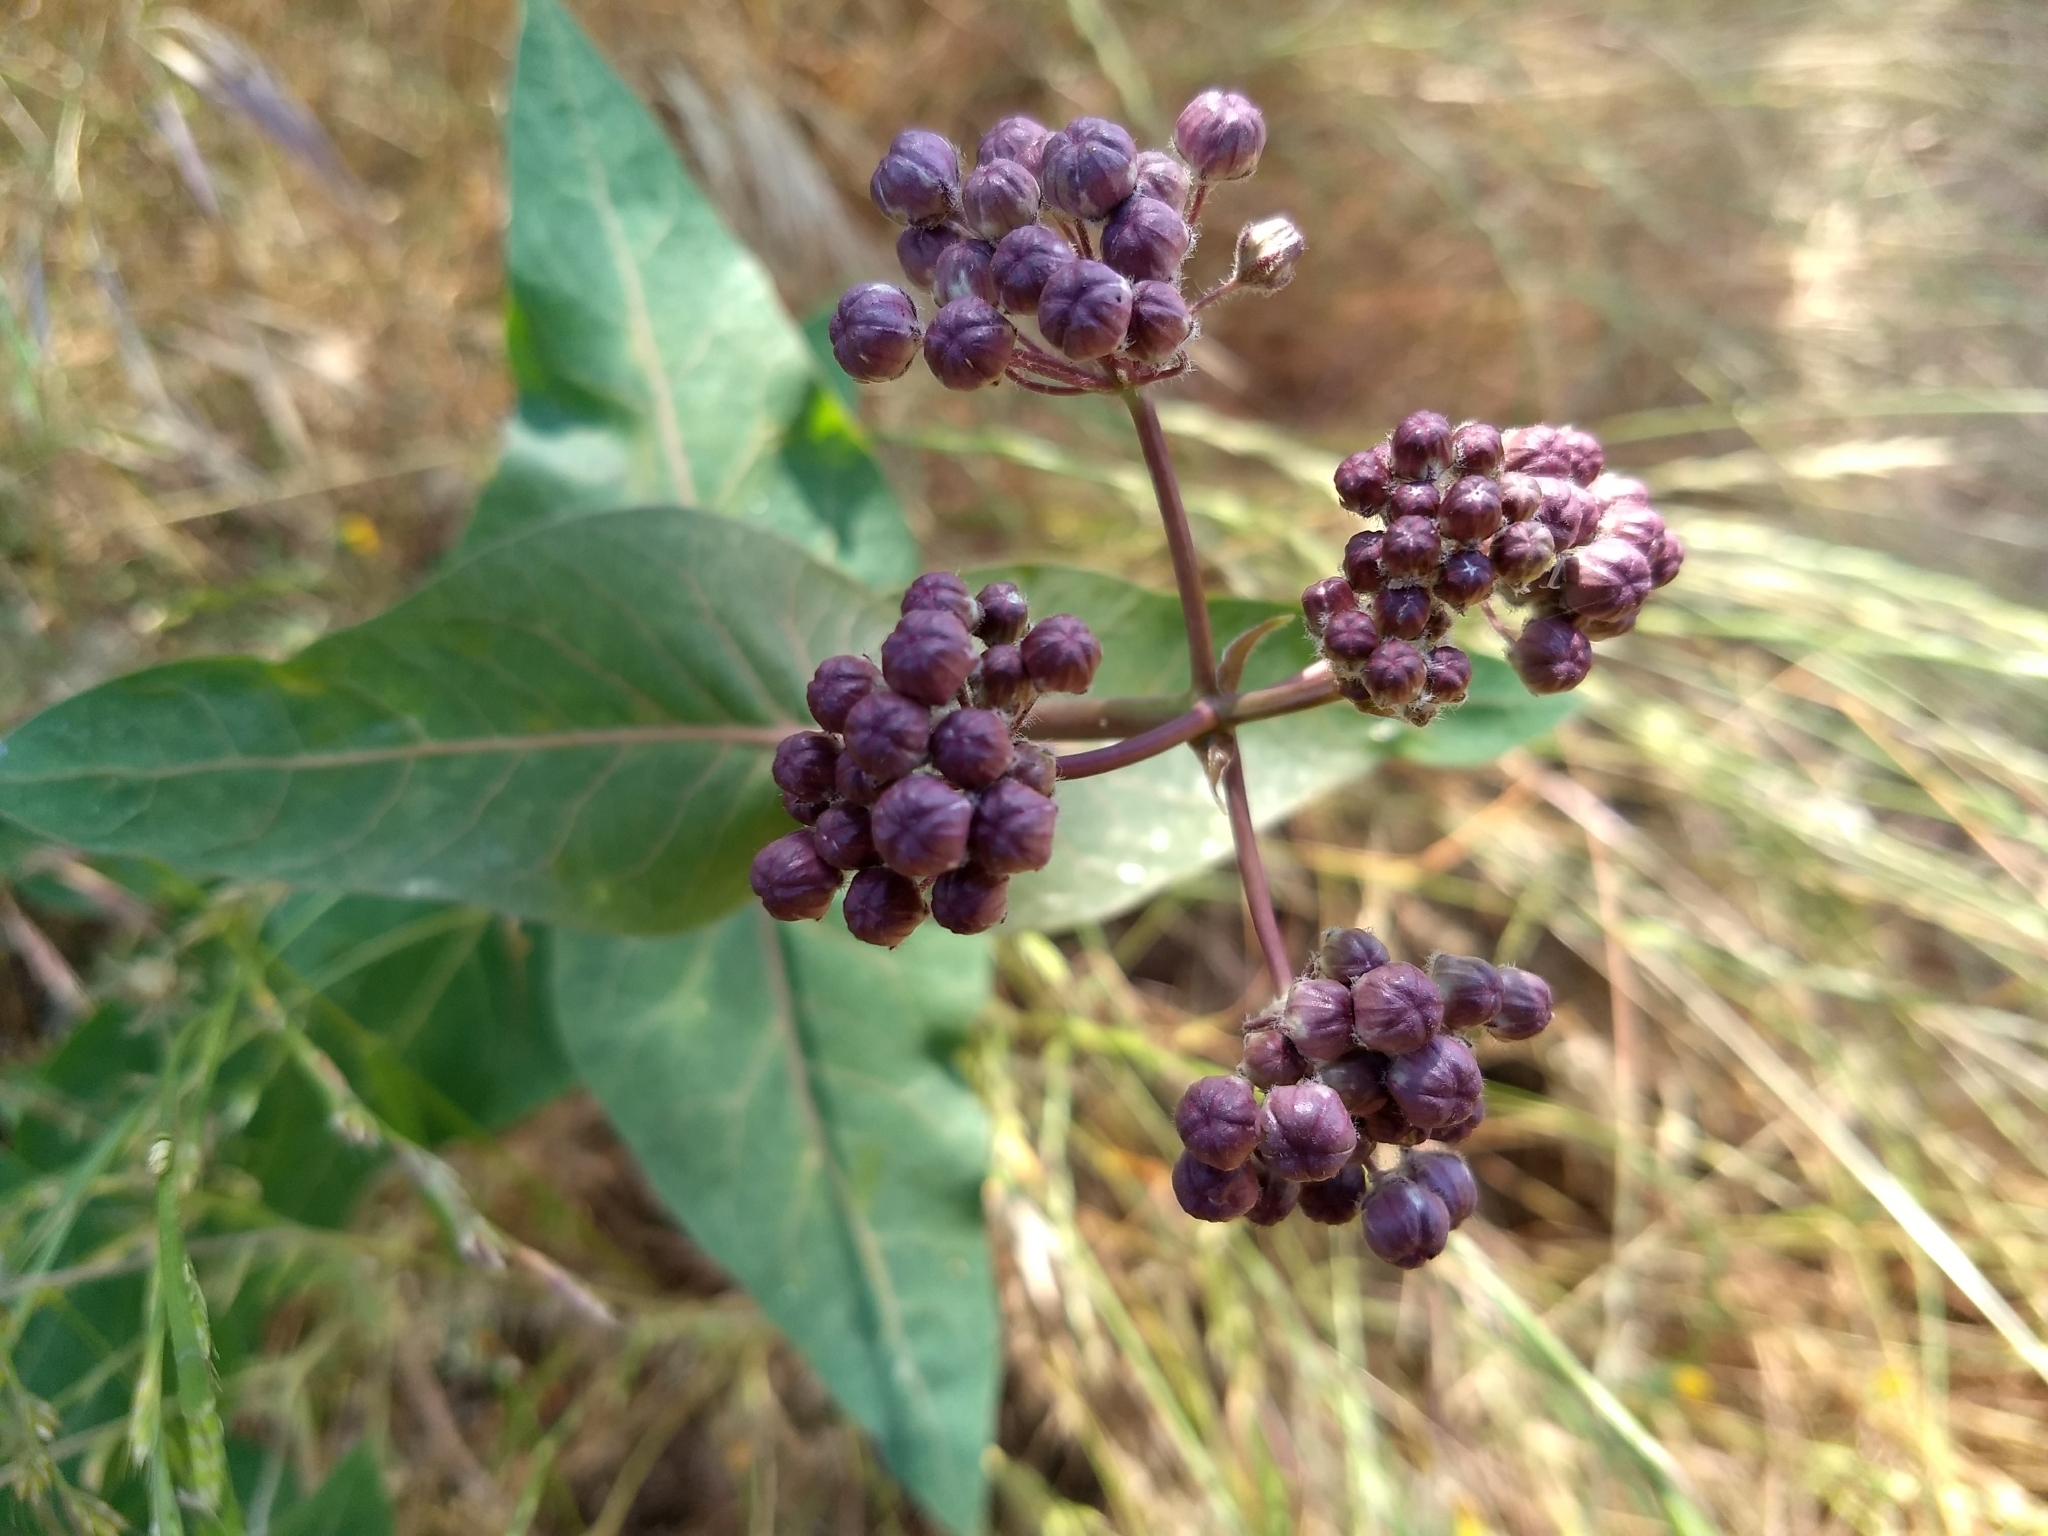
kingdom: Plantae
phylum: Tracheophyta
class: Magnoliopsida
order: Gentianales
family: Apocynaceae
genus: Asclepias
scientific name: Asclepias cordifolia
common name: Purple milkweed
